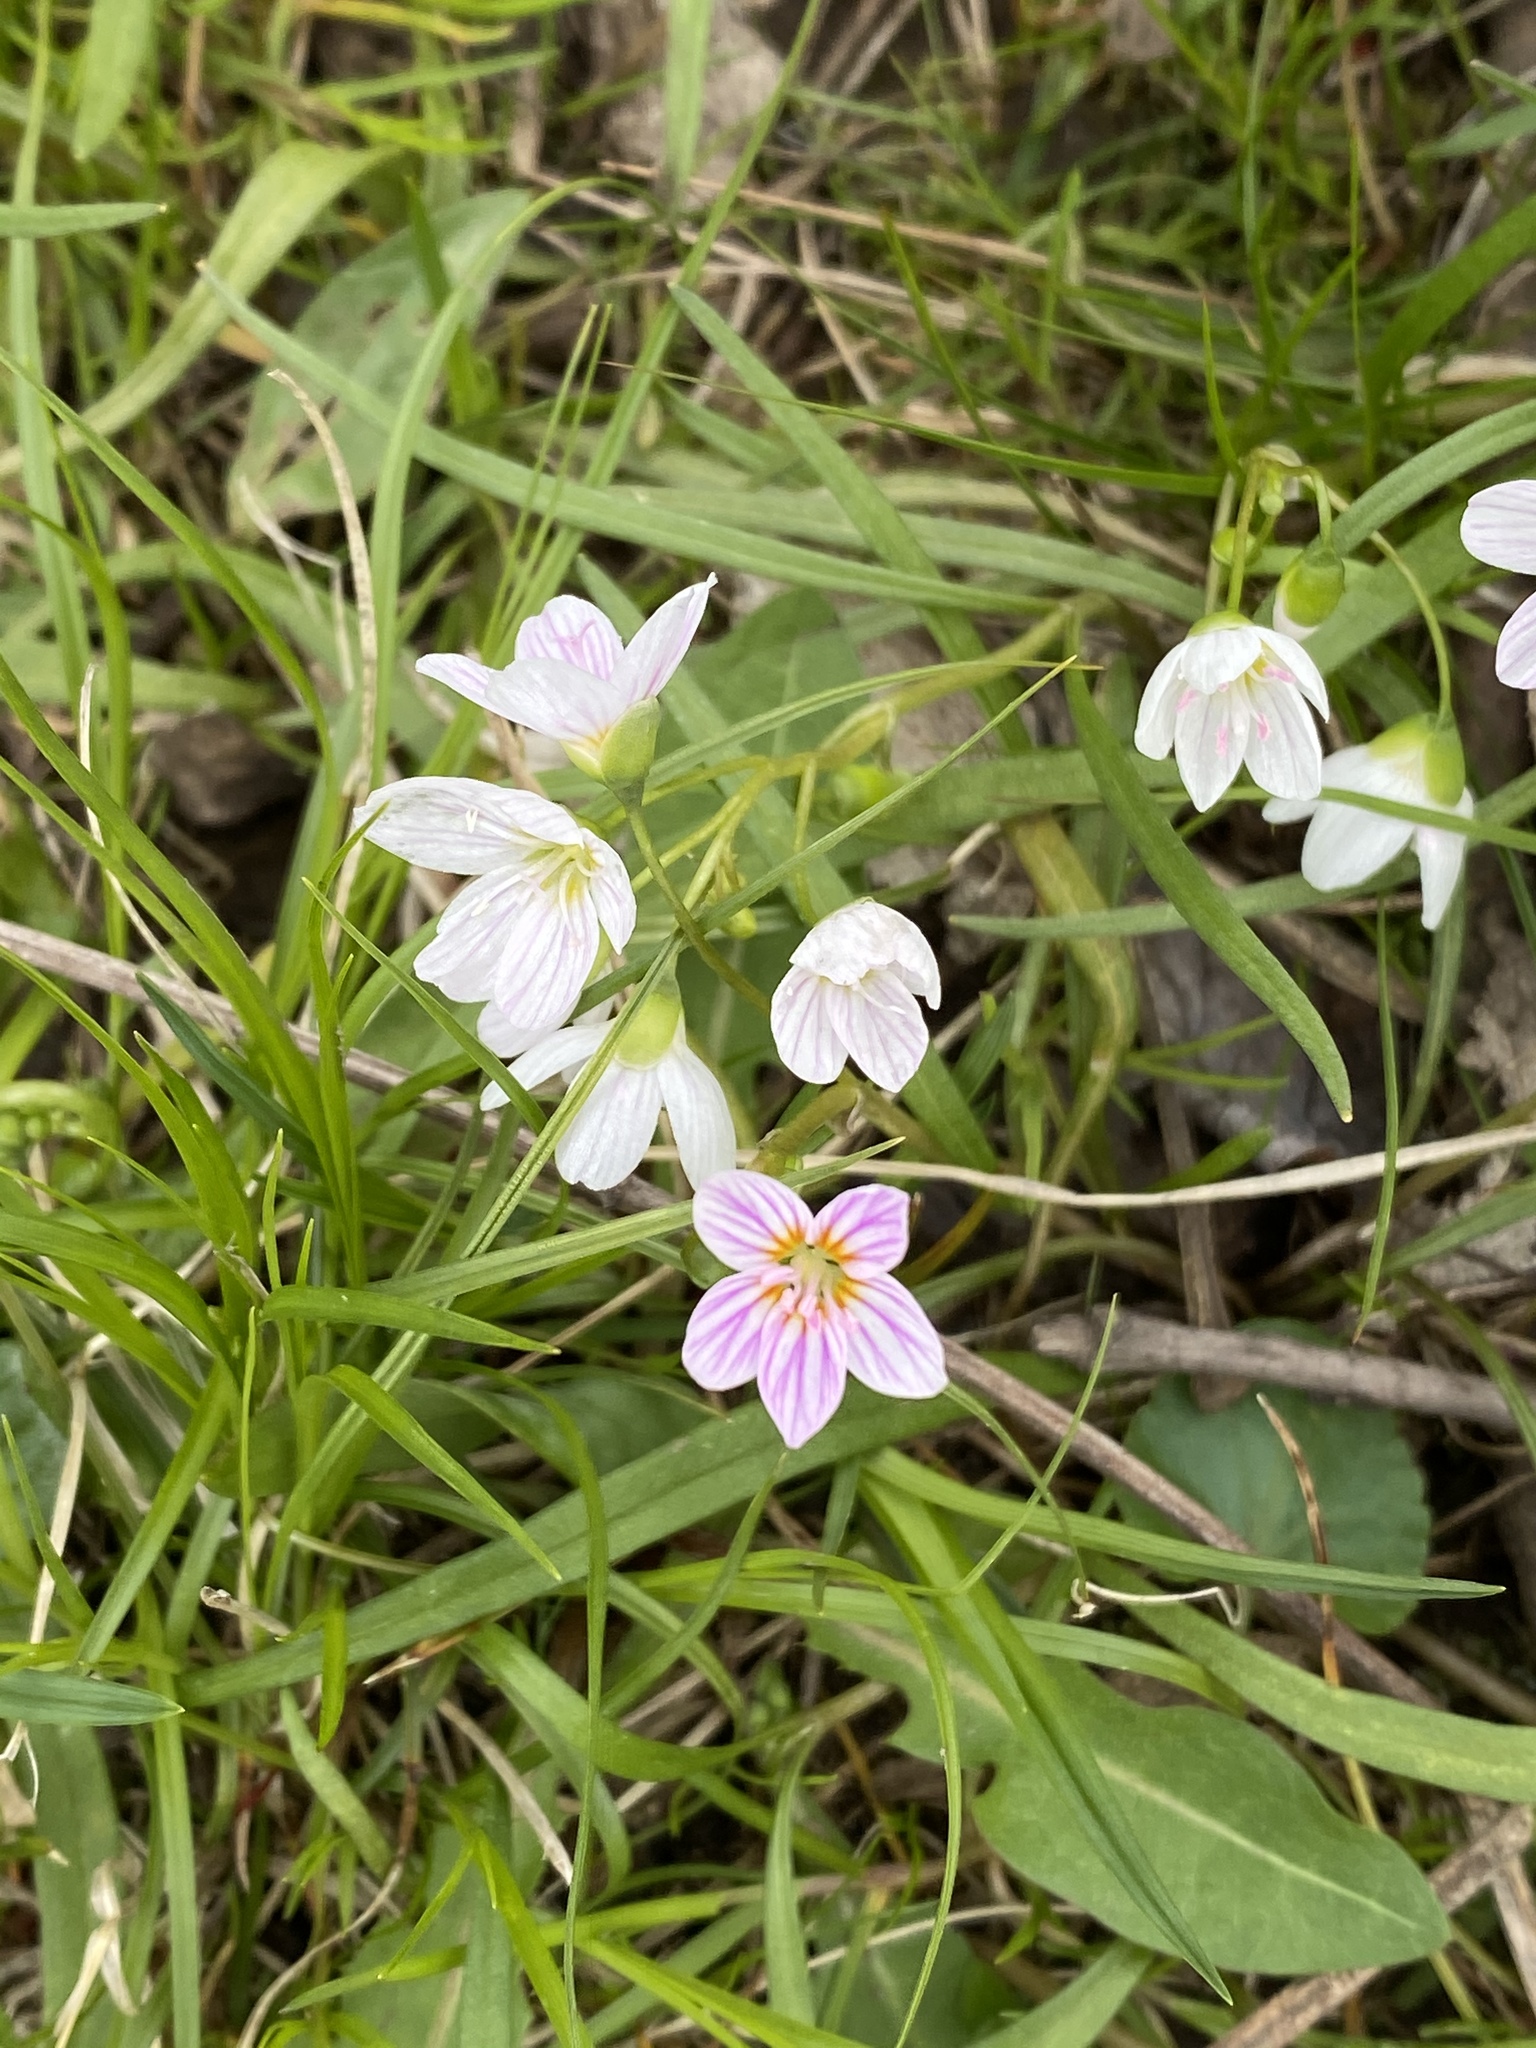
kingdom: Plantae
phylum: Tracheophyta
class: Magnoliopsida
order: Caryophyllales
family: Montiaceae
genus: Claytonia
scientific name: Claytonia virginica
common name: Virginia springbeauty
